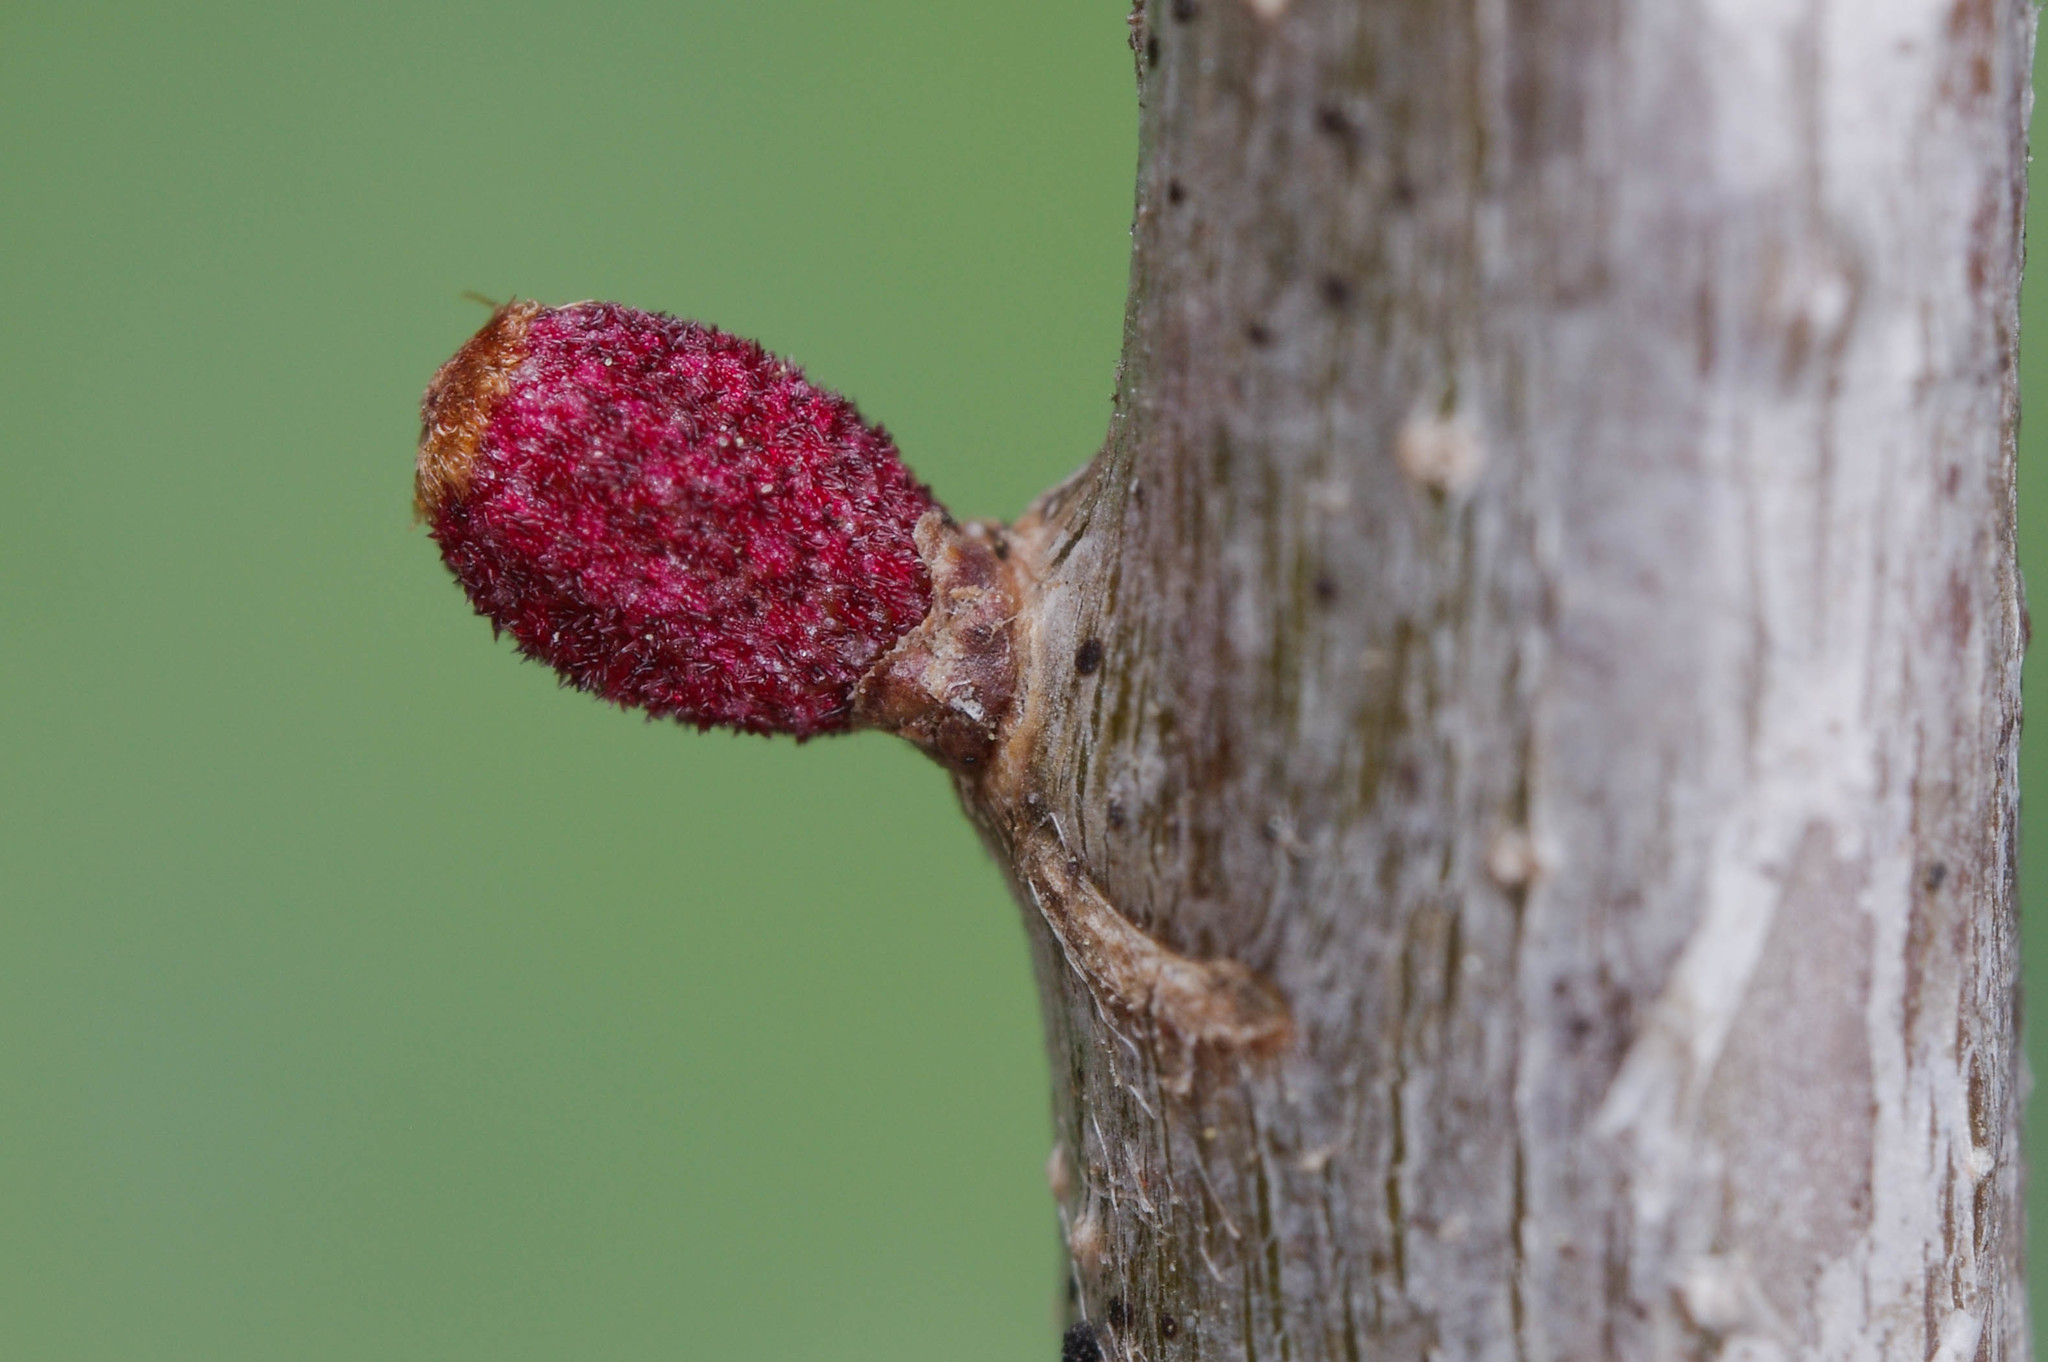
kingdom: Animalia
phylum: Arthropoda
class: Insecta
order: Hymenoptera
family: Cynipidae
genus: Callirhytis
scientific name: Callirhytis
